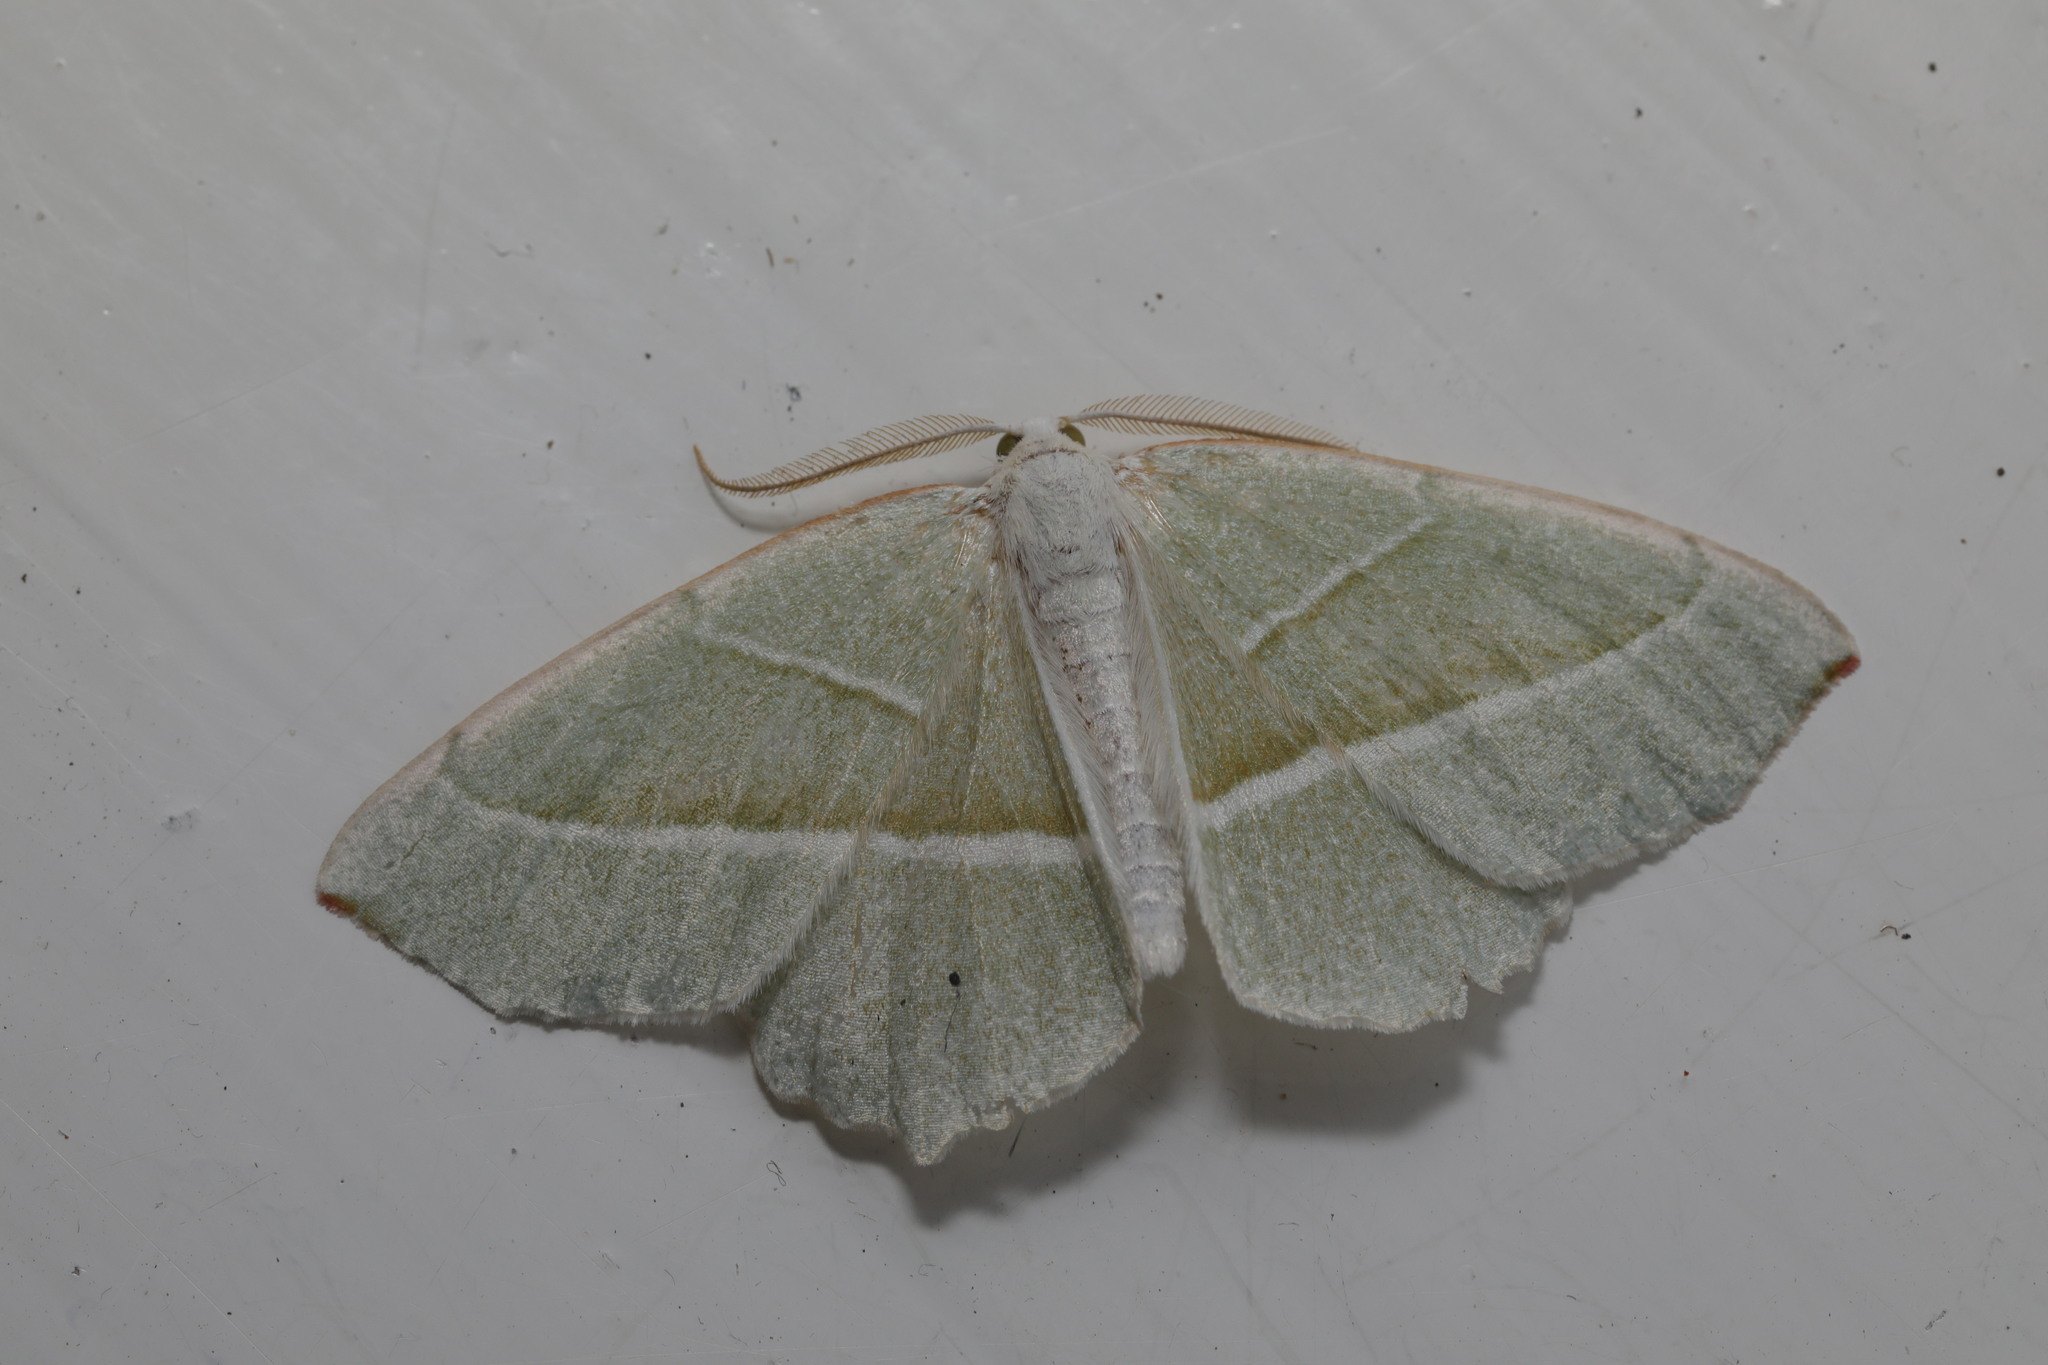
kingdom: Animalia
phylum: Arthropoda
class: Insecta
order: Lepidoptera
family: Geometridae
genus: Campaea
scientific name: Campaea margaritaria
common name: Light emerald
